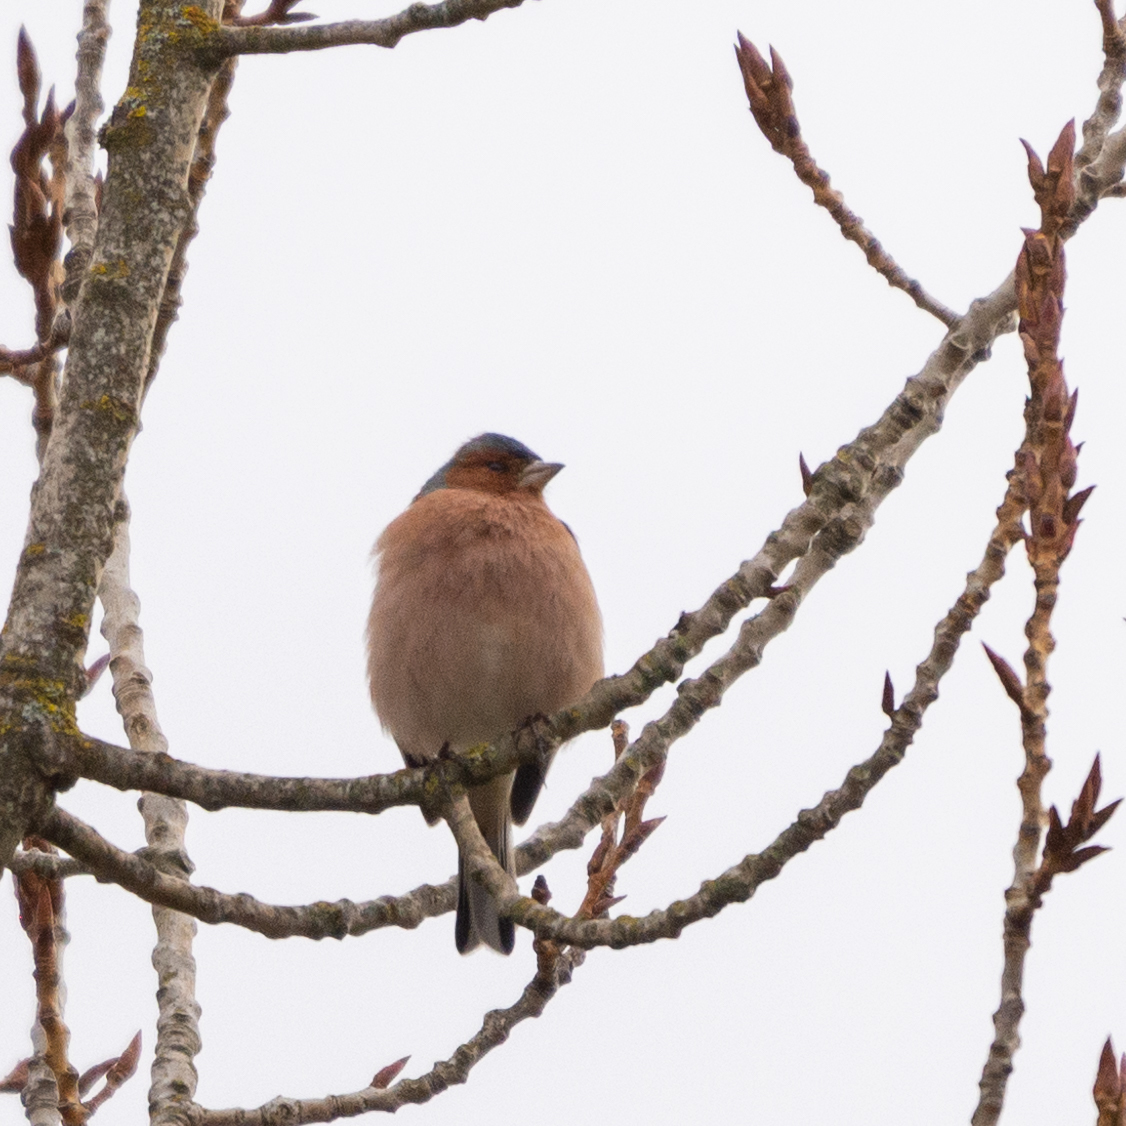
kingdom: Animalia
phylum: Chordata
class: Aves
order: Passeriformes
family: Fringillidae
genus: Fringilla
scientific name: Fringilla coelebs
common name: Common chaffinch
